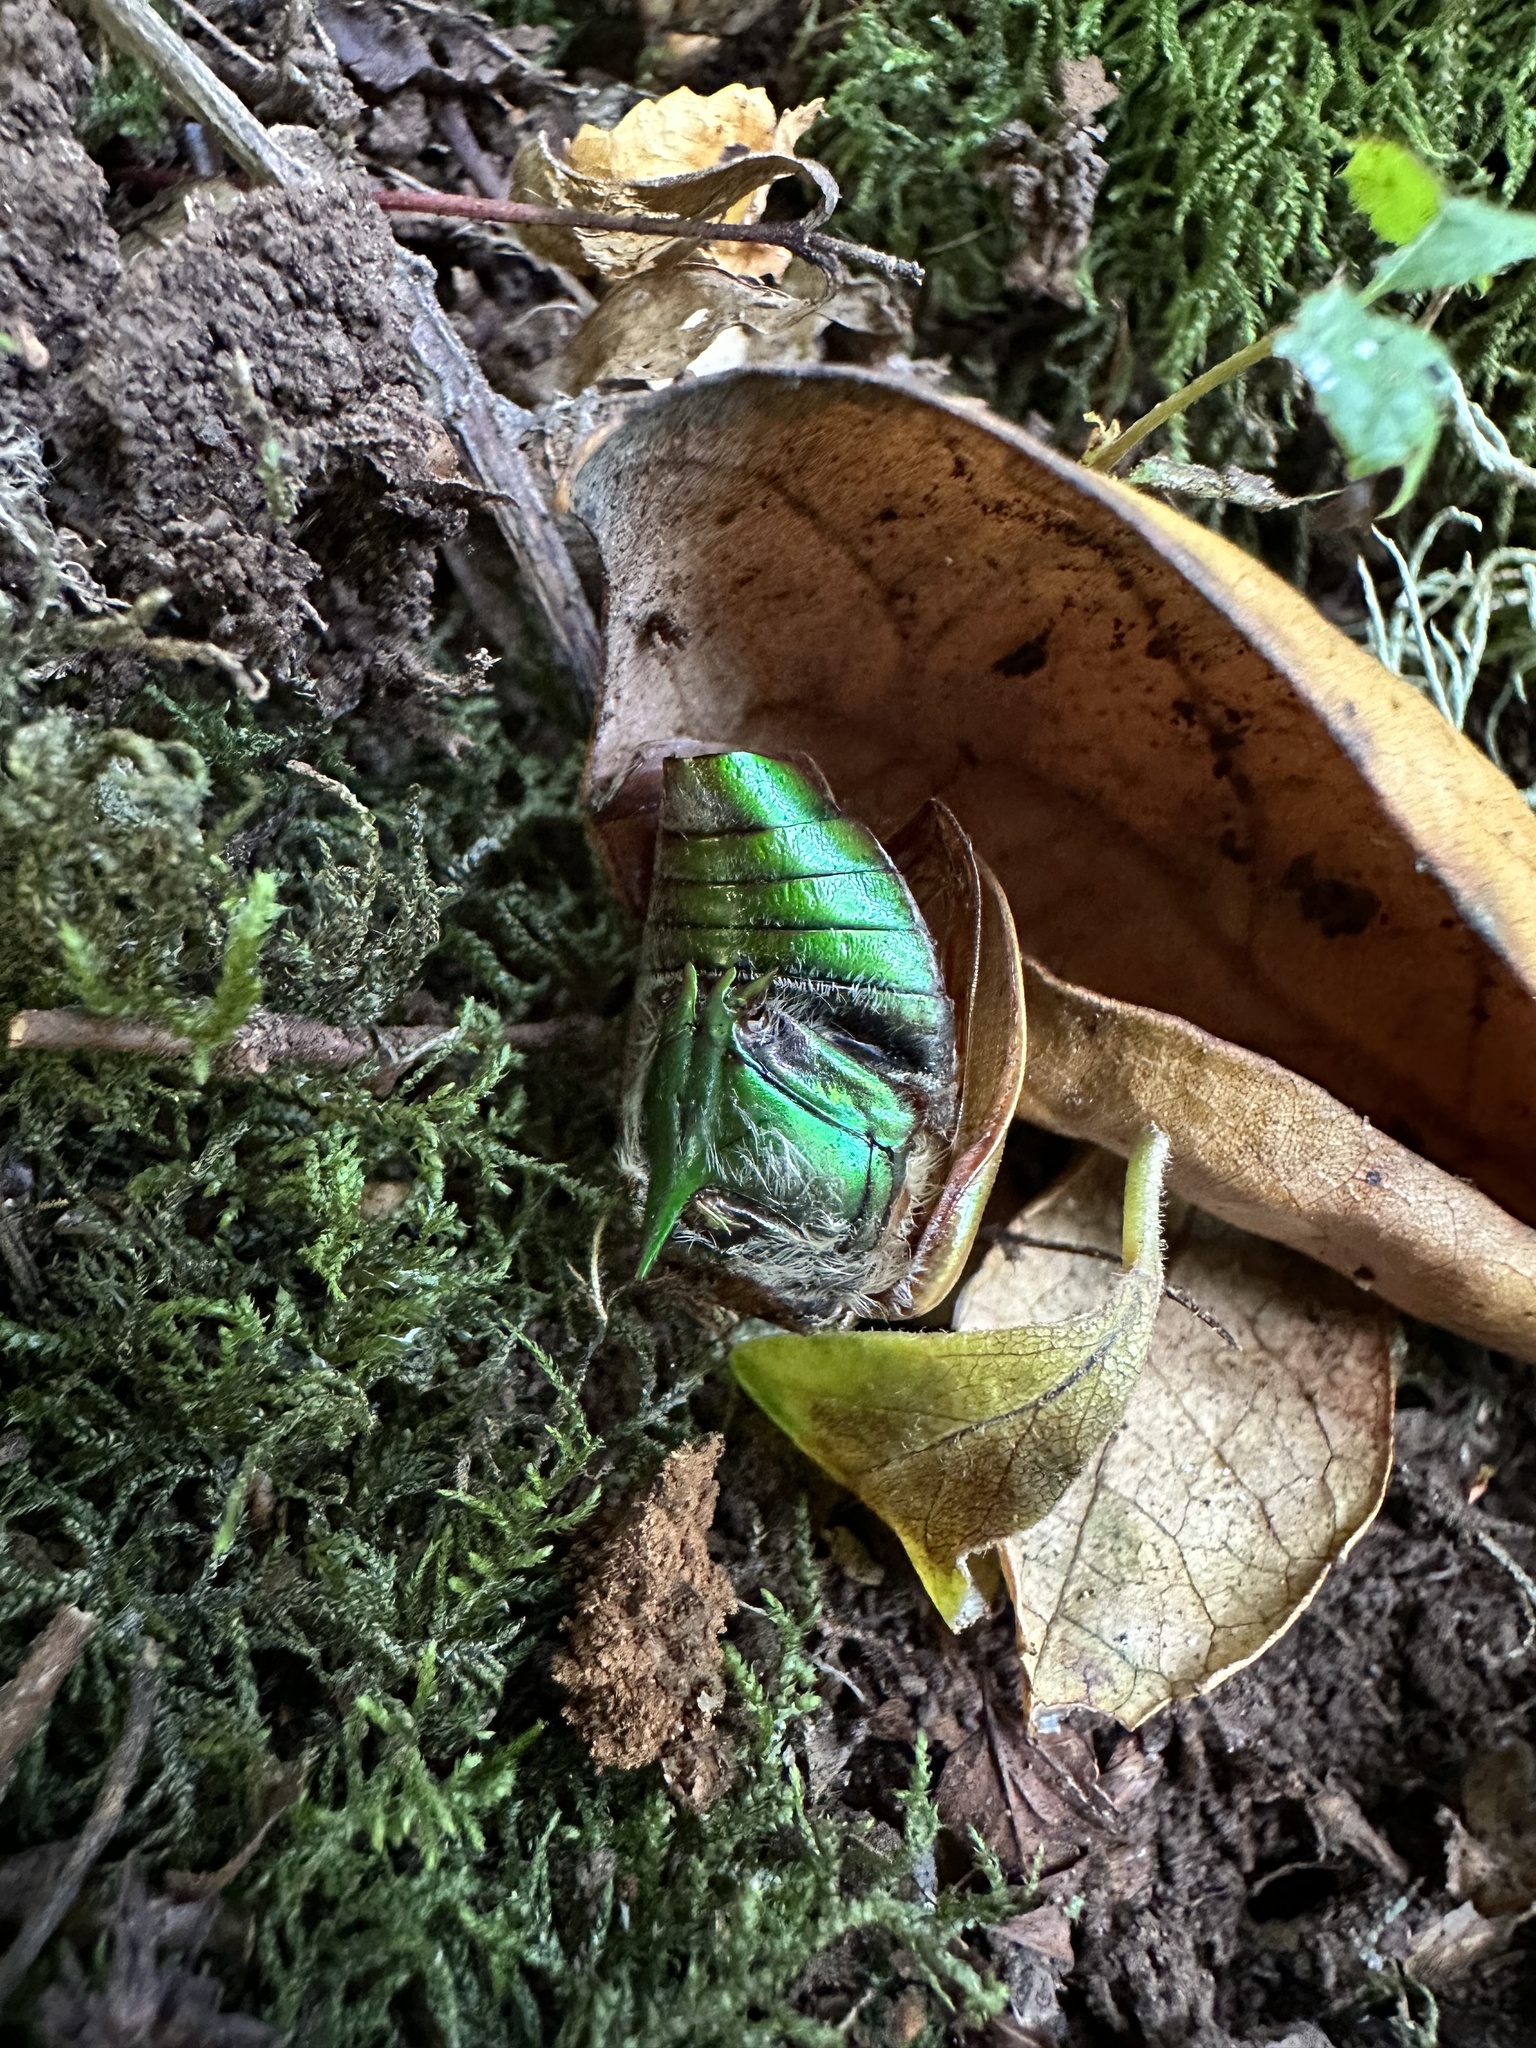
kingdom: Animalia
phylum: Arthropoda
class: Insecta
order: Coleoptera
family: Scarabaeidae
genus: Modialis
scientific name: Modialis prasinella
